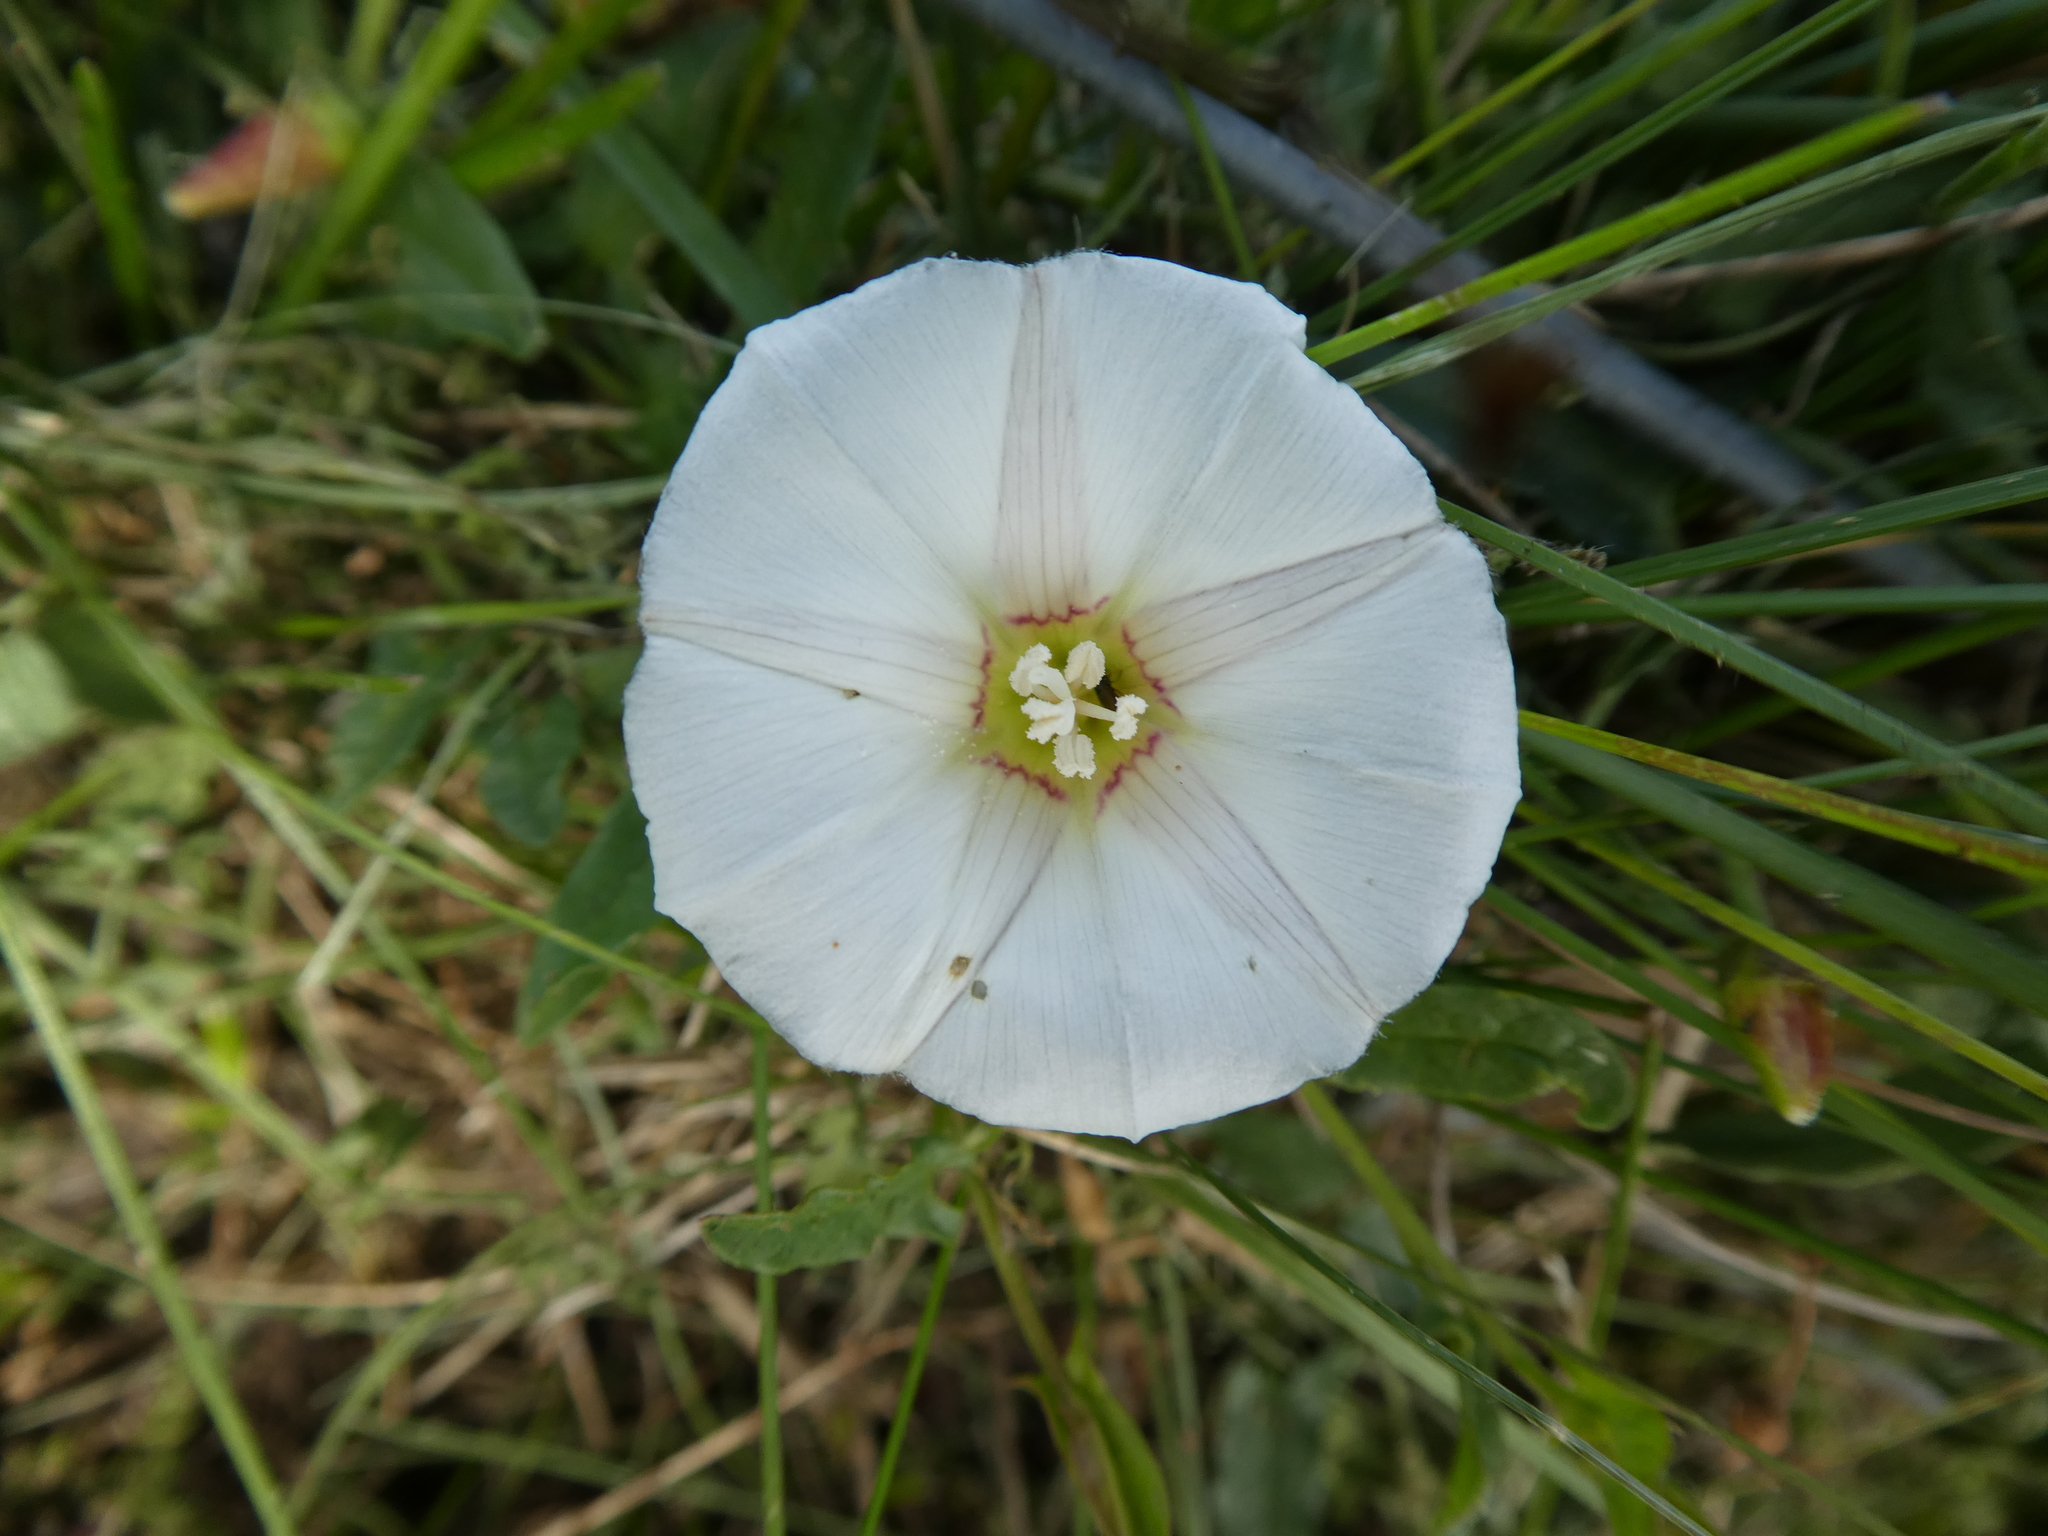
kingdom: Plantae
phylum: Tracheophyta
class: Magnoliopsida
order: Solanales
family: Convolvulaceae
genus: Convolvulus
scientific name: Convolvulus arvensis
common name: Field bindweed
